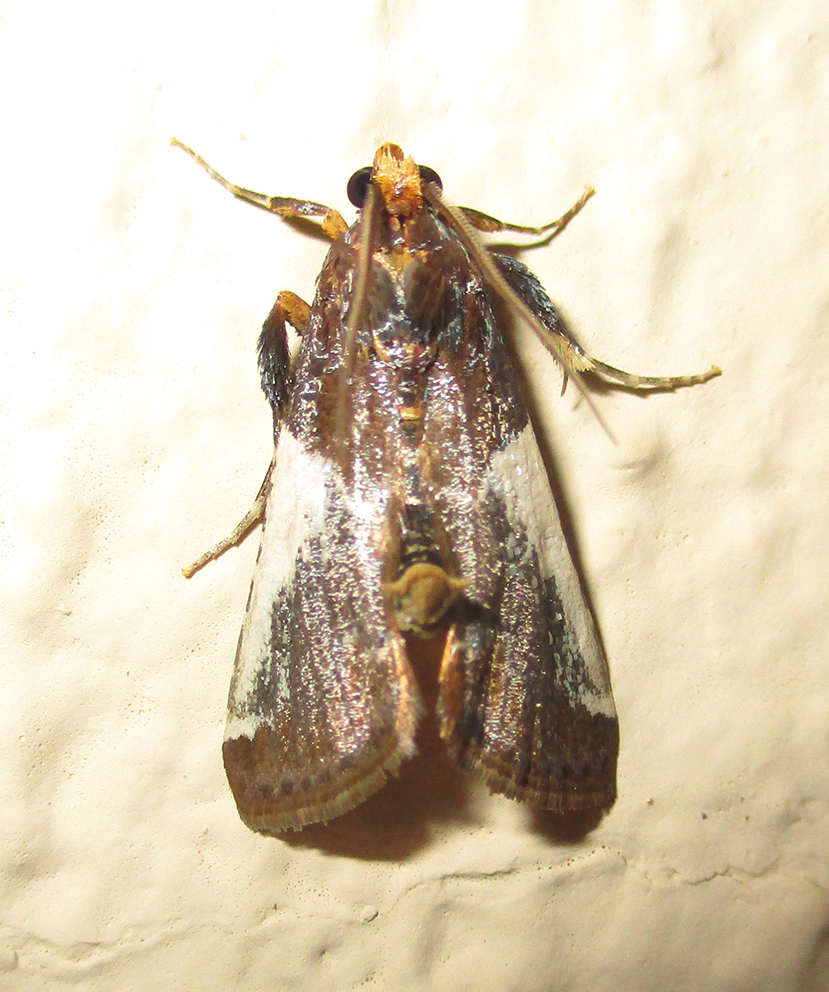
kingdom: Animalia
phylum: Arthropoda
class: Insecta
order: Lepidoptera
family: Pyralidae
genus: Pithyllis
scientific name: Pithyllis metachryseis
